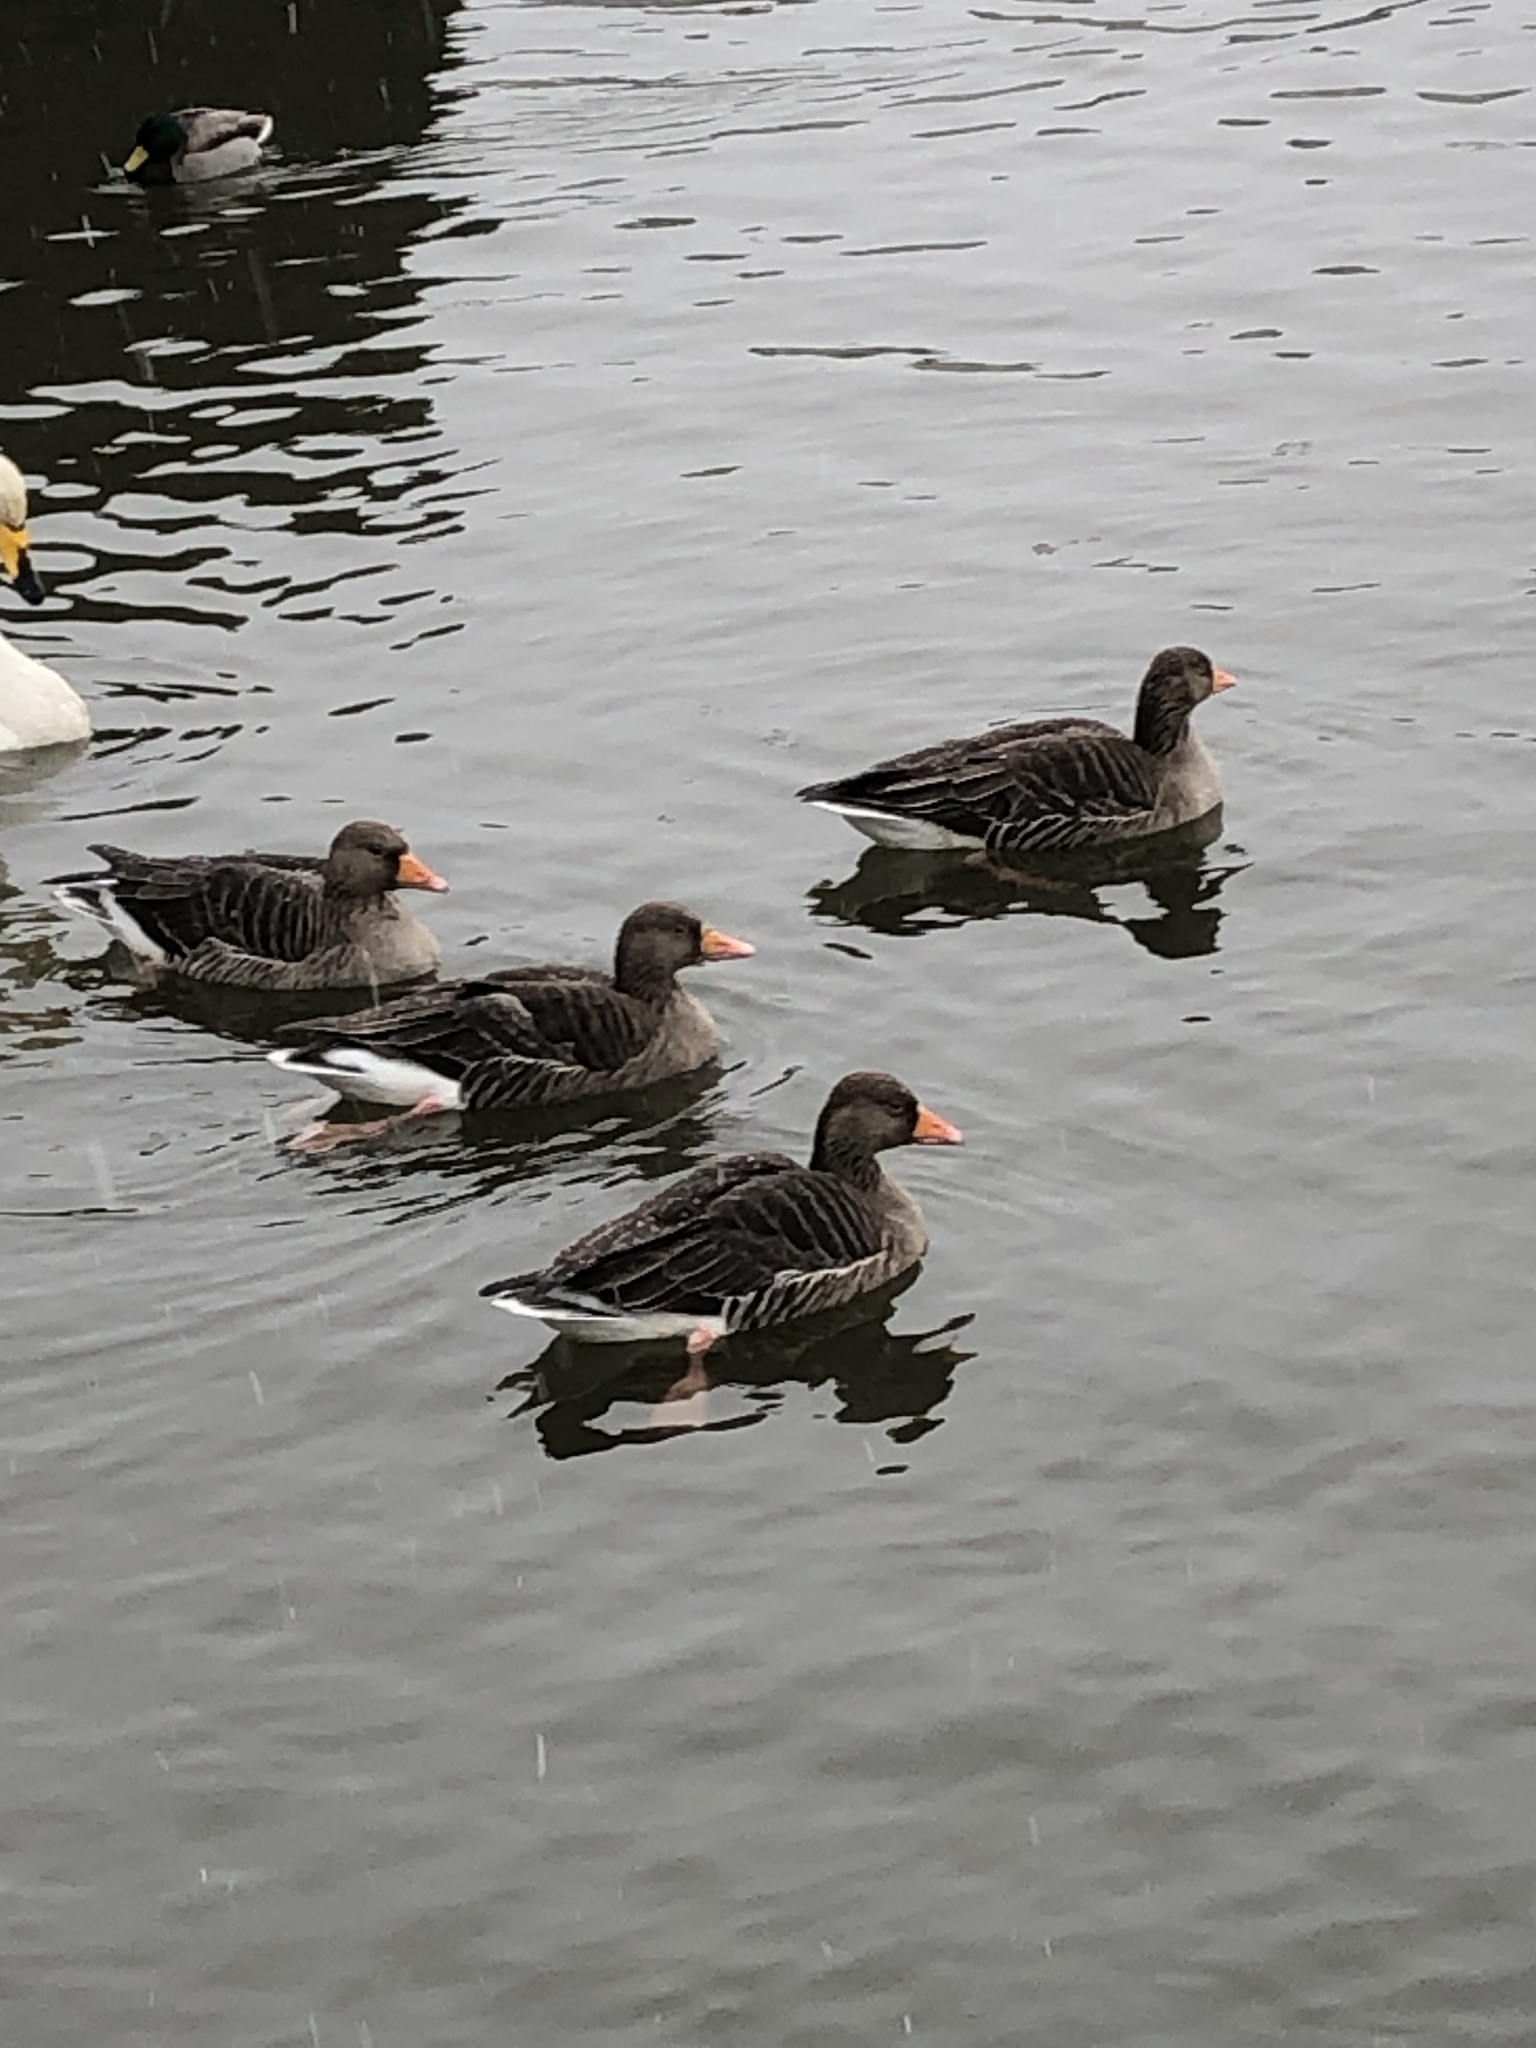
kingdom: Animalia
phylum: Chordata
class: Aves
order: Anseriformes
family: Anatidae
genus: Anser
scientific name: Anser anser
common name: Greylag goose
